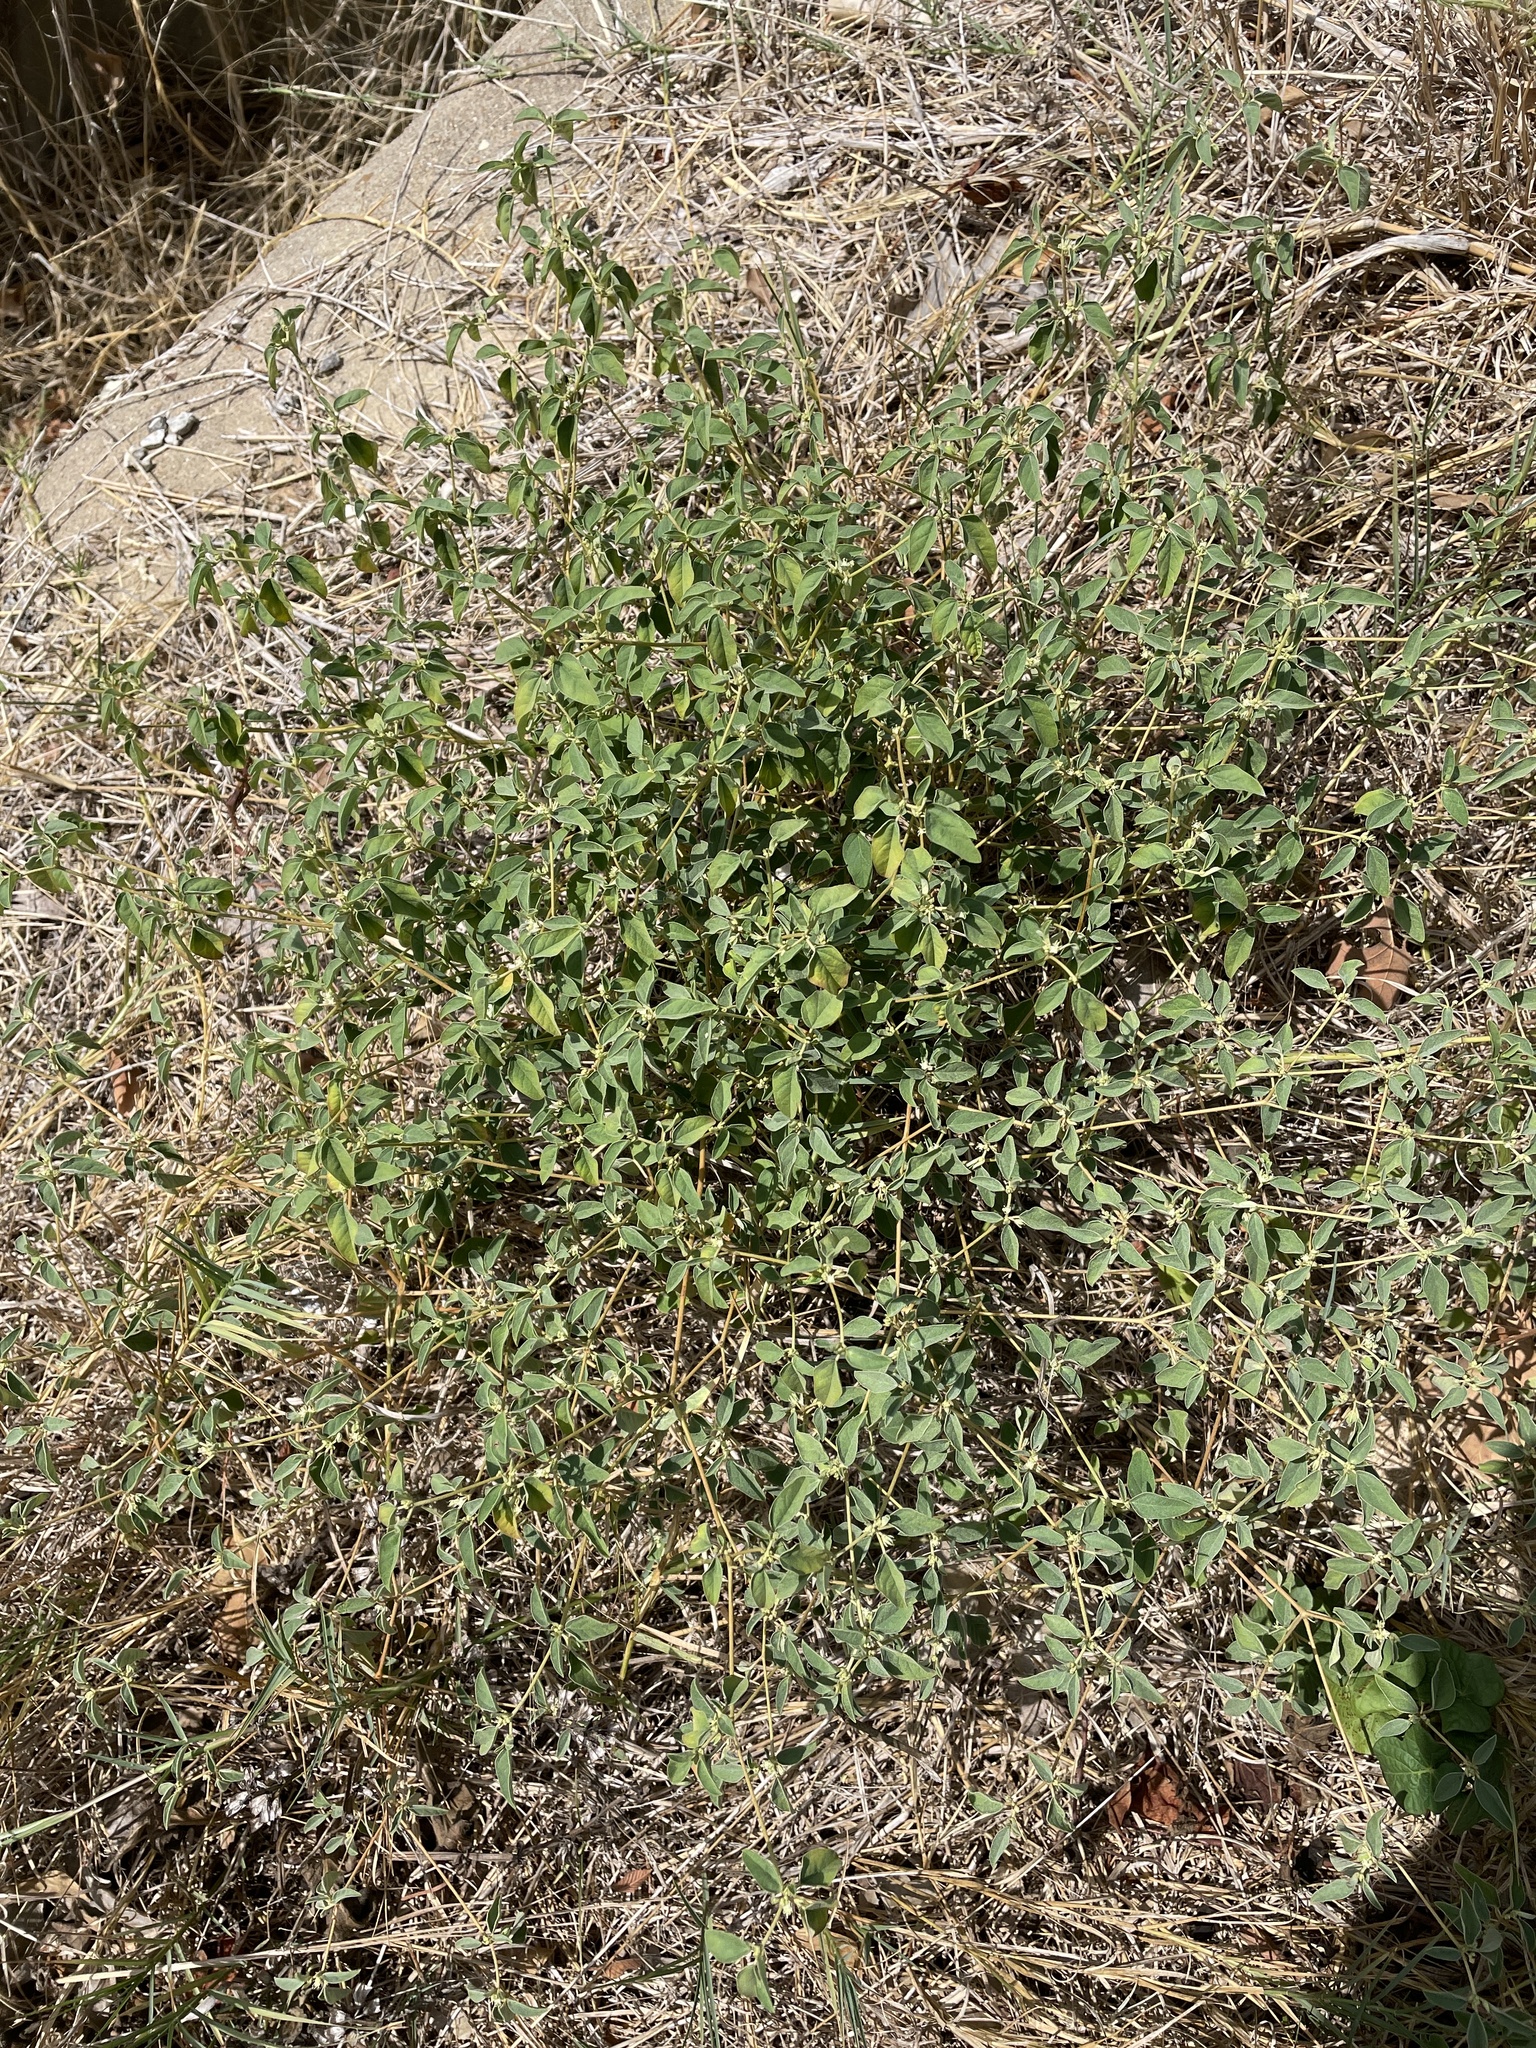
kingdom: Plantae
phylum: Tracheophyta
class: Magnoliopsida
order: Malpighiales
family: Euphorbiaceae
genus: Croton
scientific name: Croton monanthogynus
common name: One-seed croton
